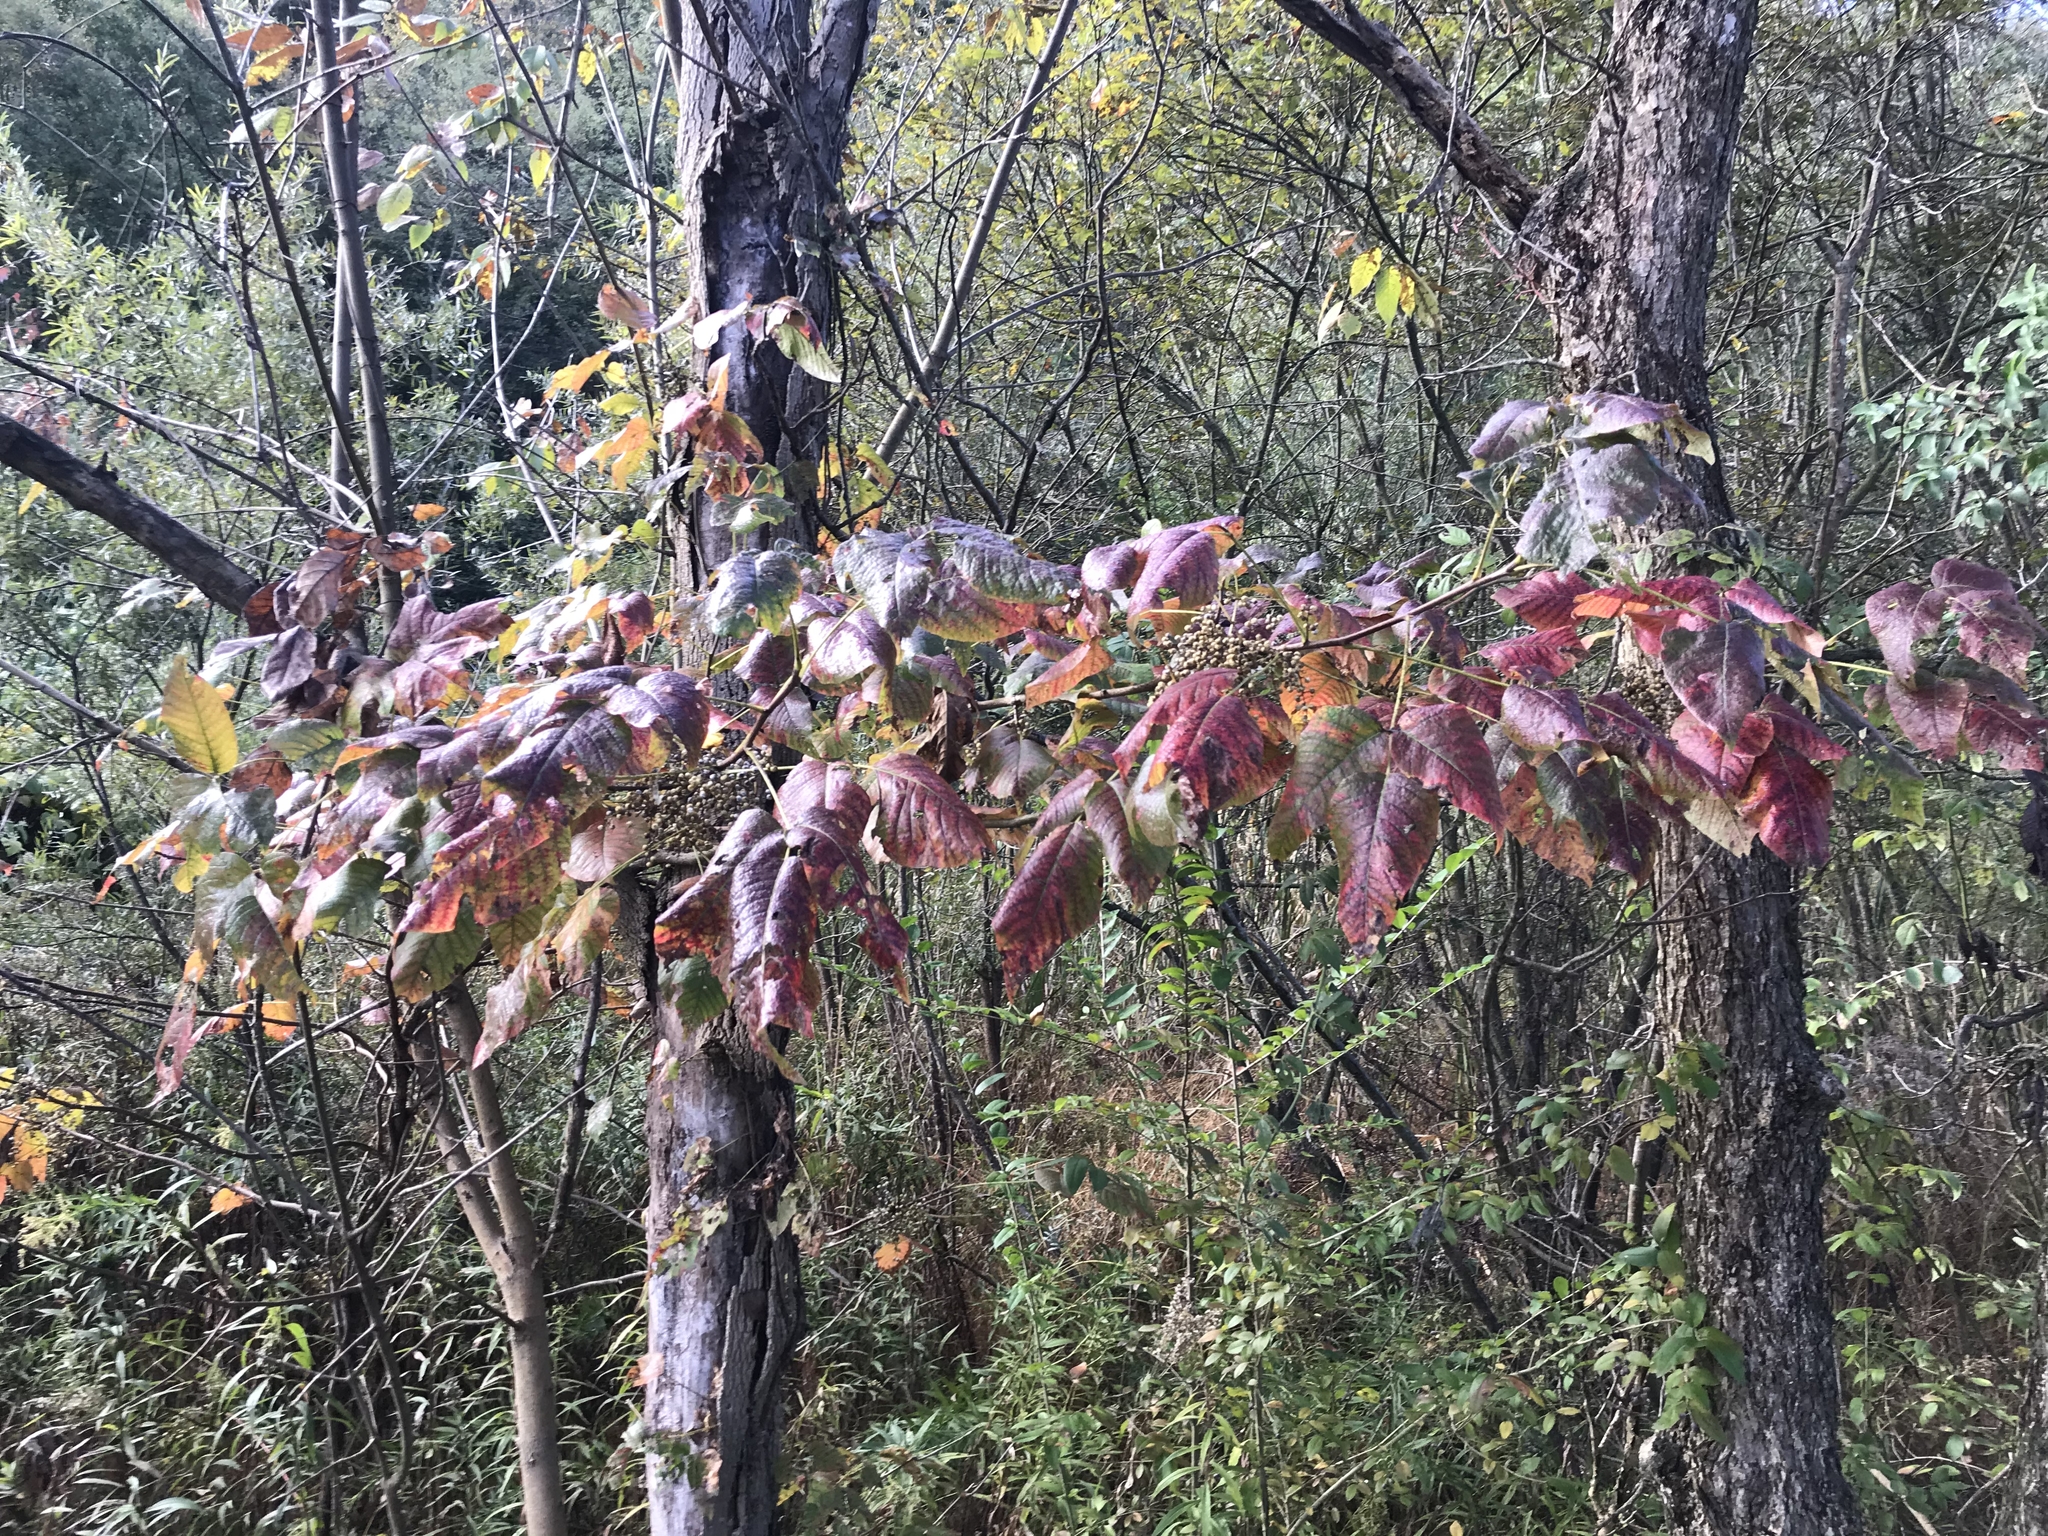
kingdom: Plantae
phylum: Tracheophyta
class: Magnoliopsida
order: Sapindales
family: Anacardiaceae
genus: Toxicodendron
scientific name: Toxicodendron radicans
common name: Poison ivy
